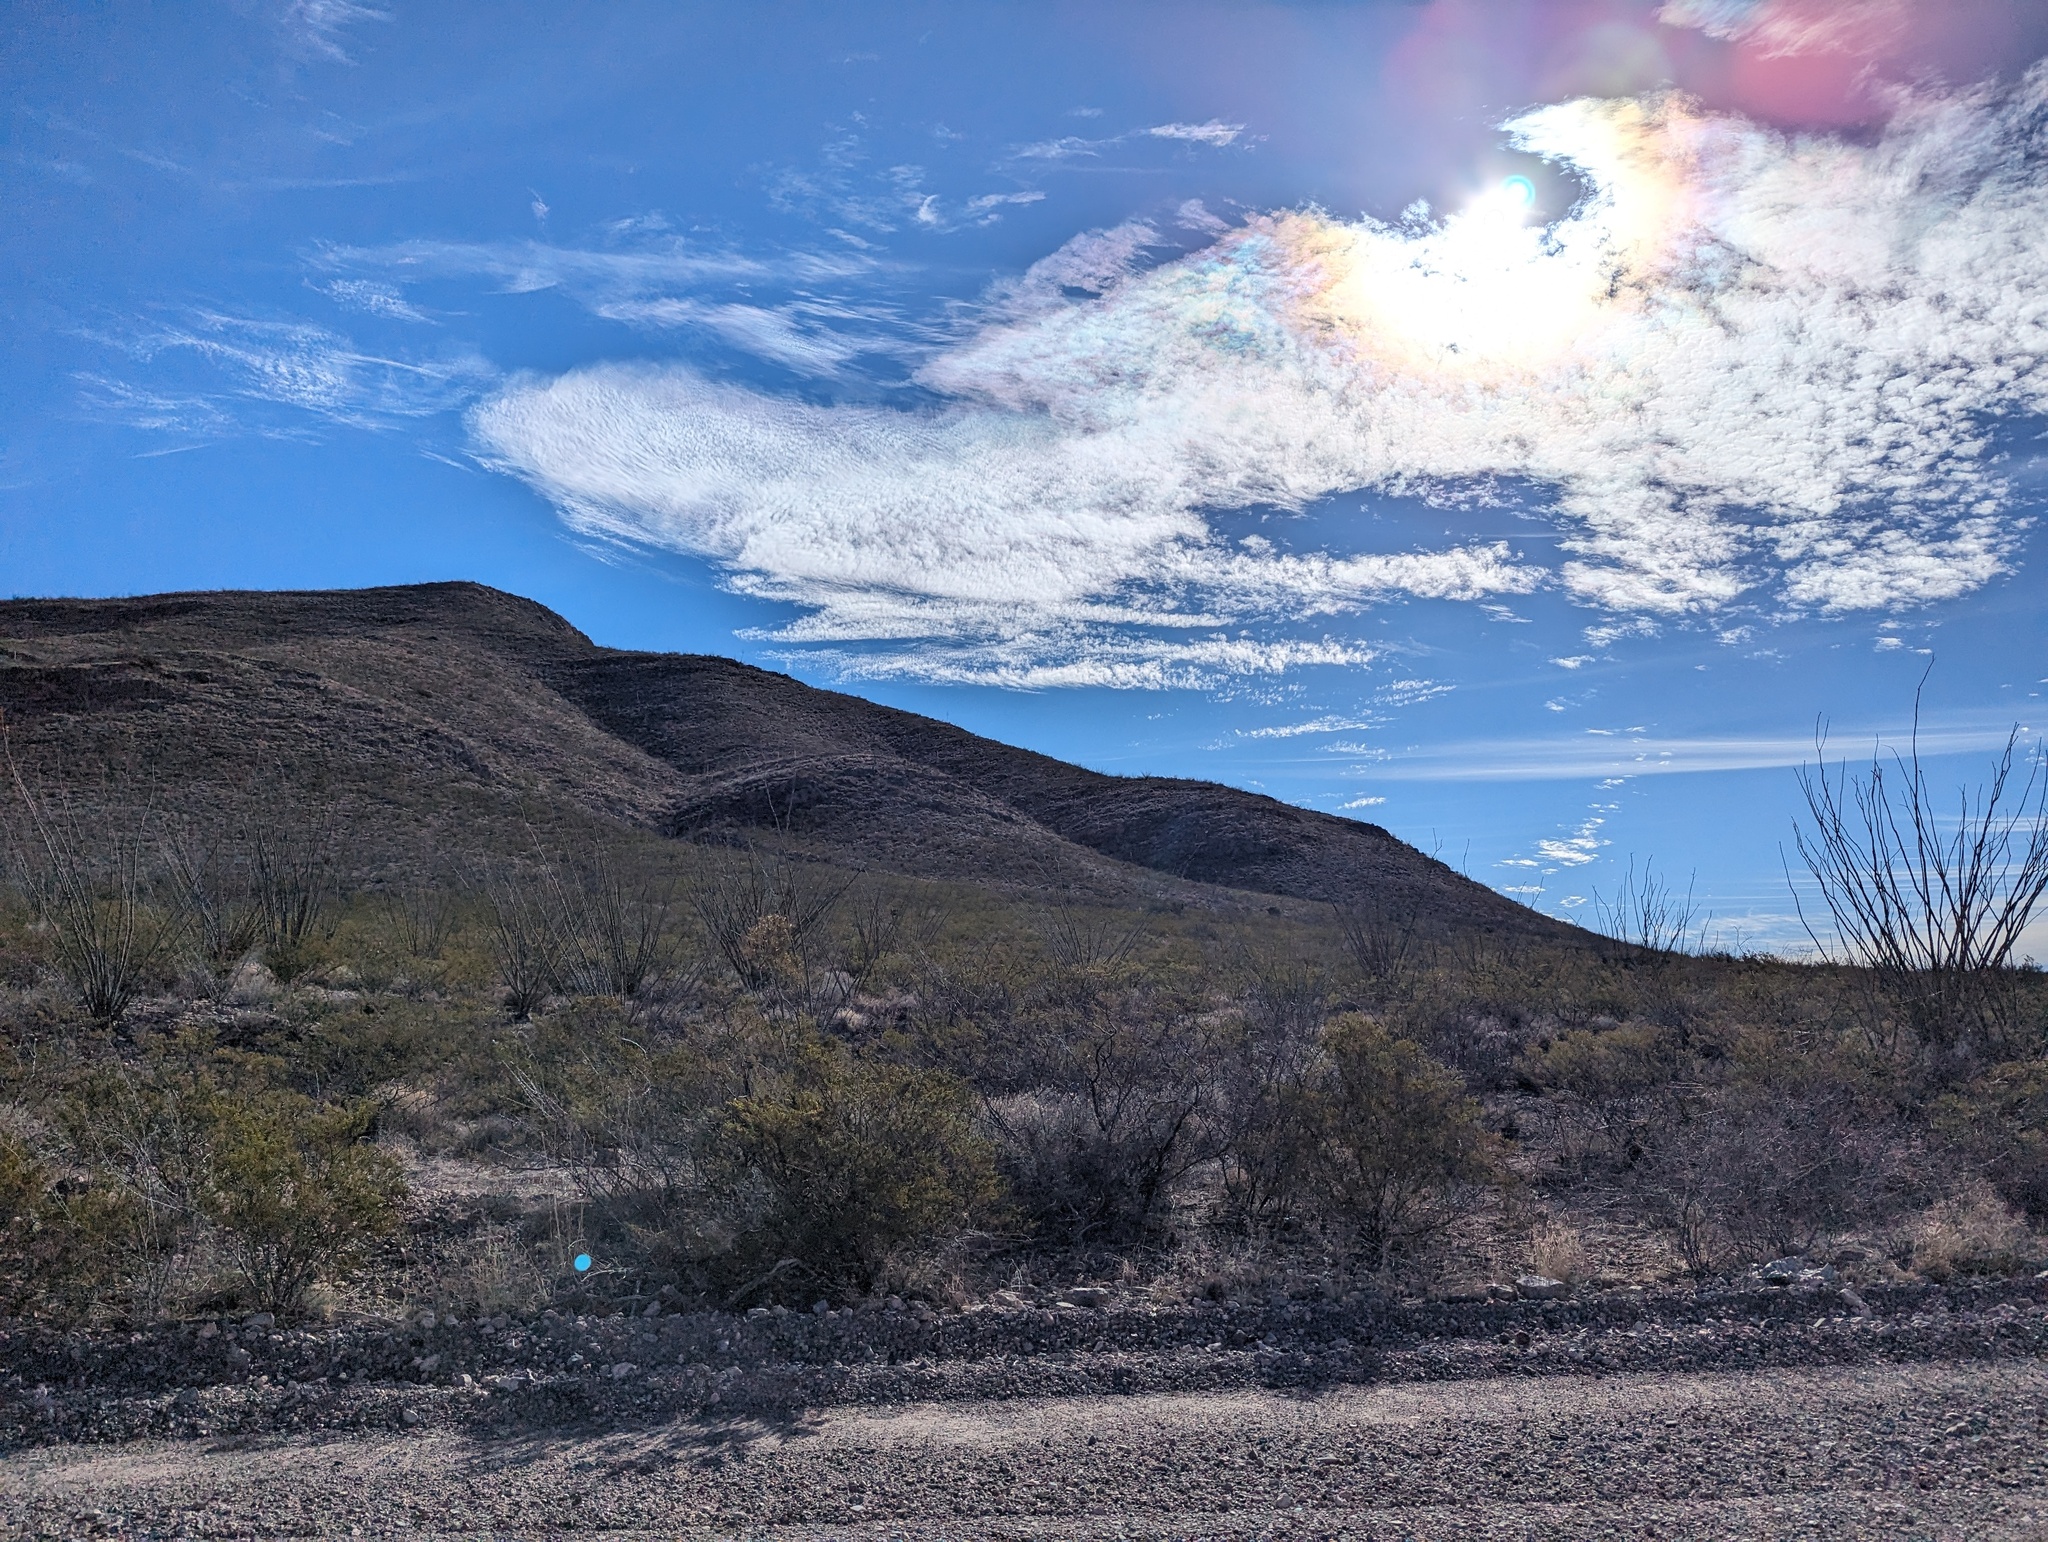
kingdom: Plantae
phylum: Tracheophyta
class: Magnoliopsida
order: Ericales
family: Fouquieriaceae
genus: Fouquieria
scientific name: Fouquieria splendens
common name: Vine-cactus
